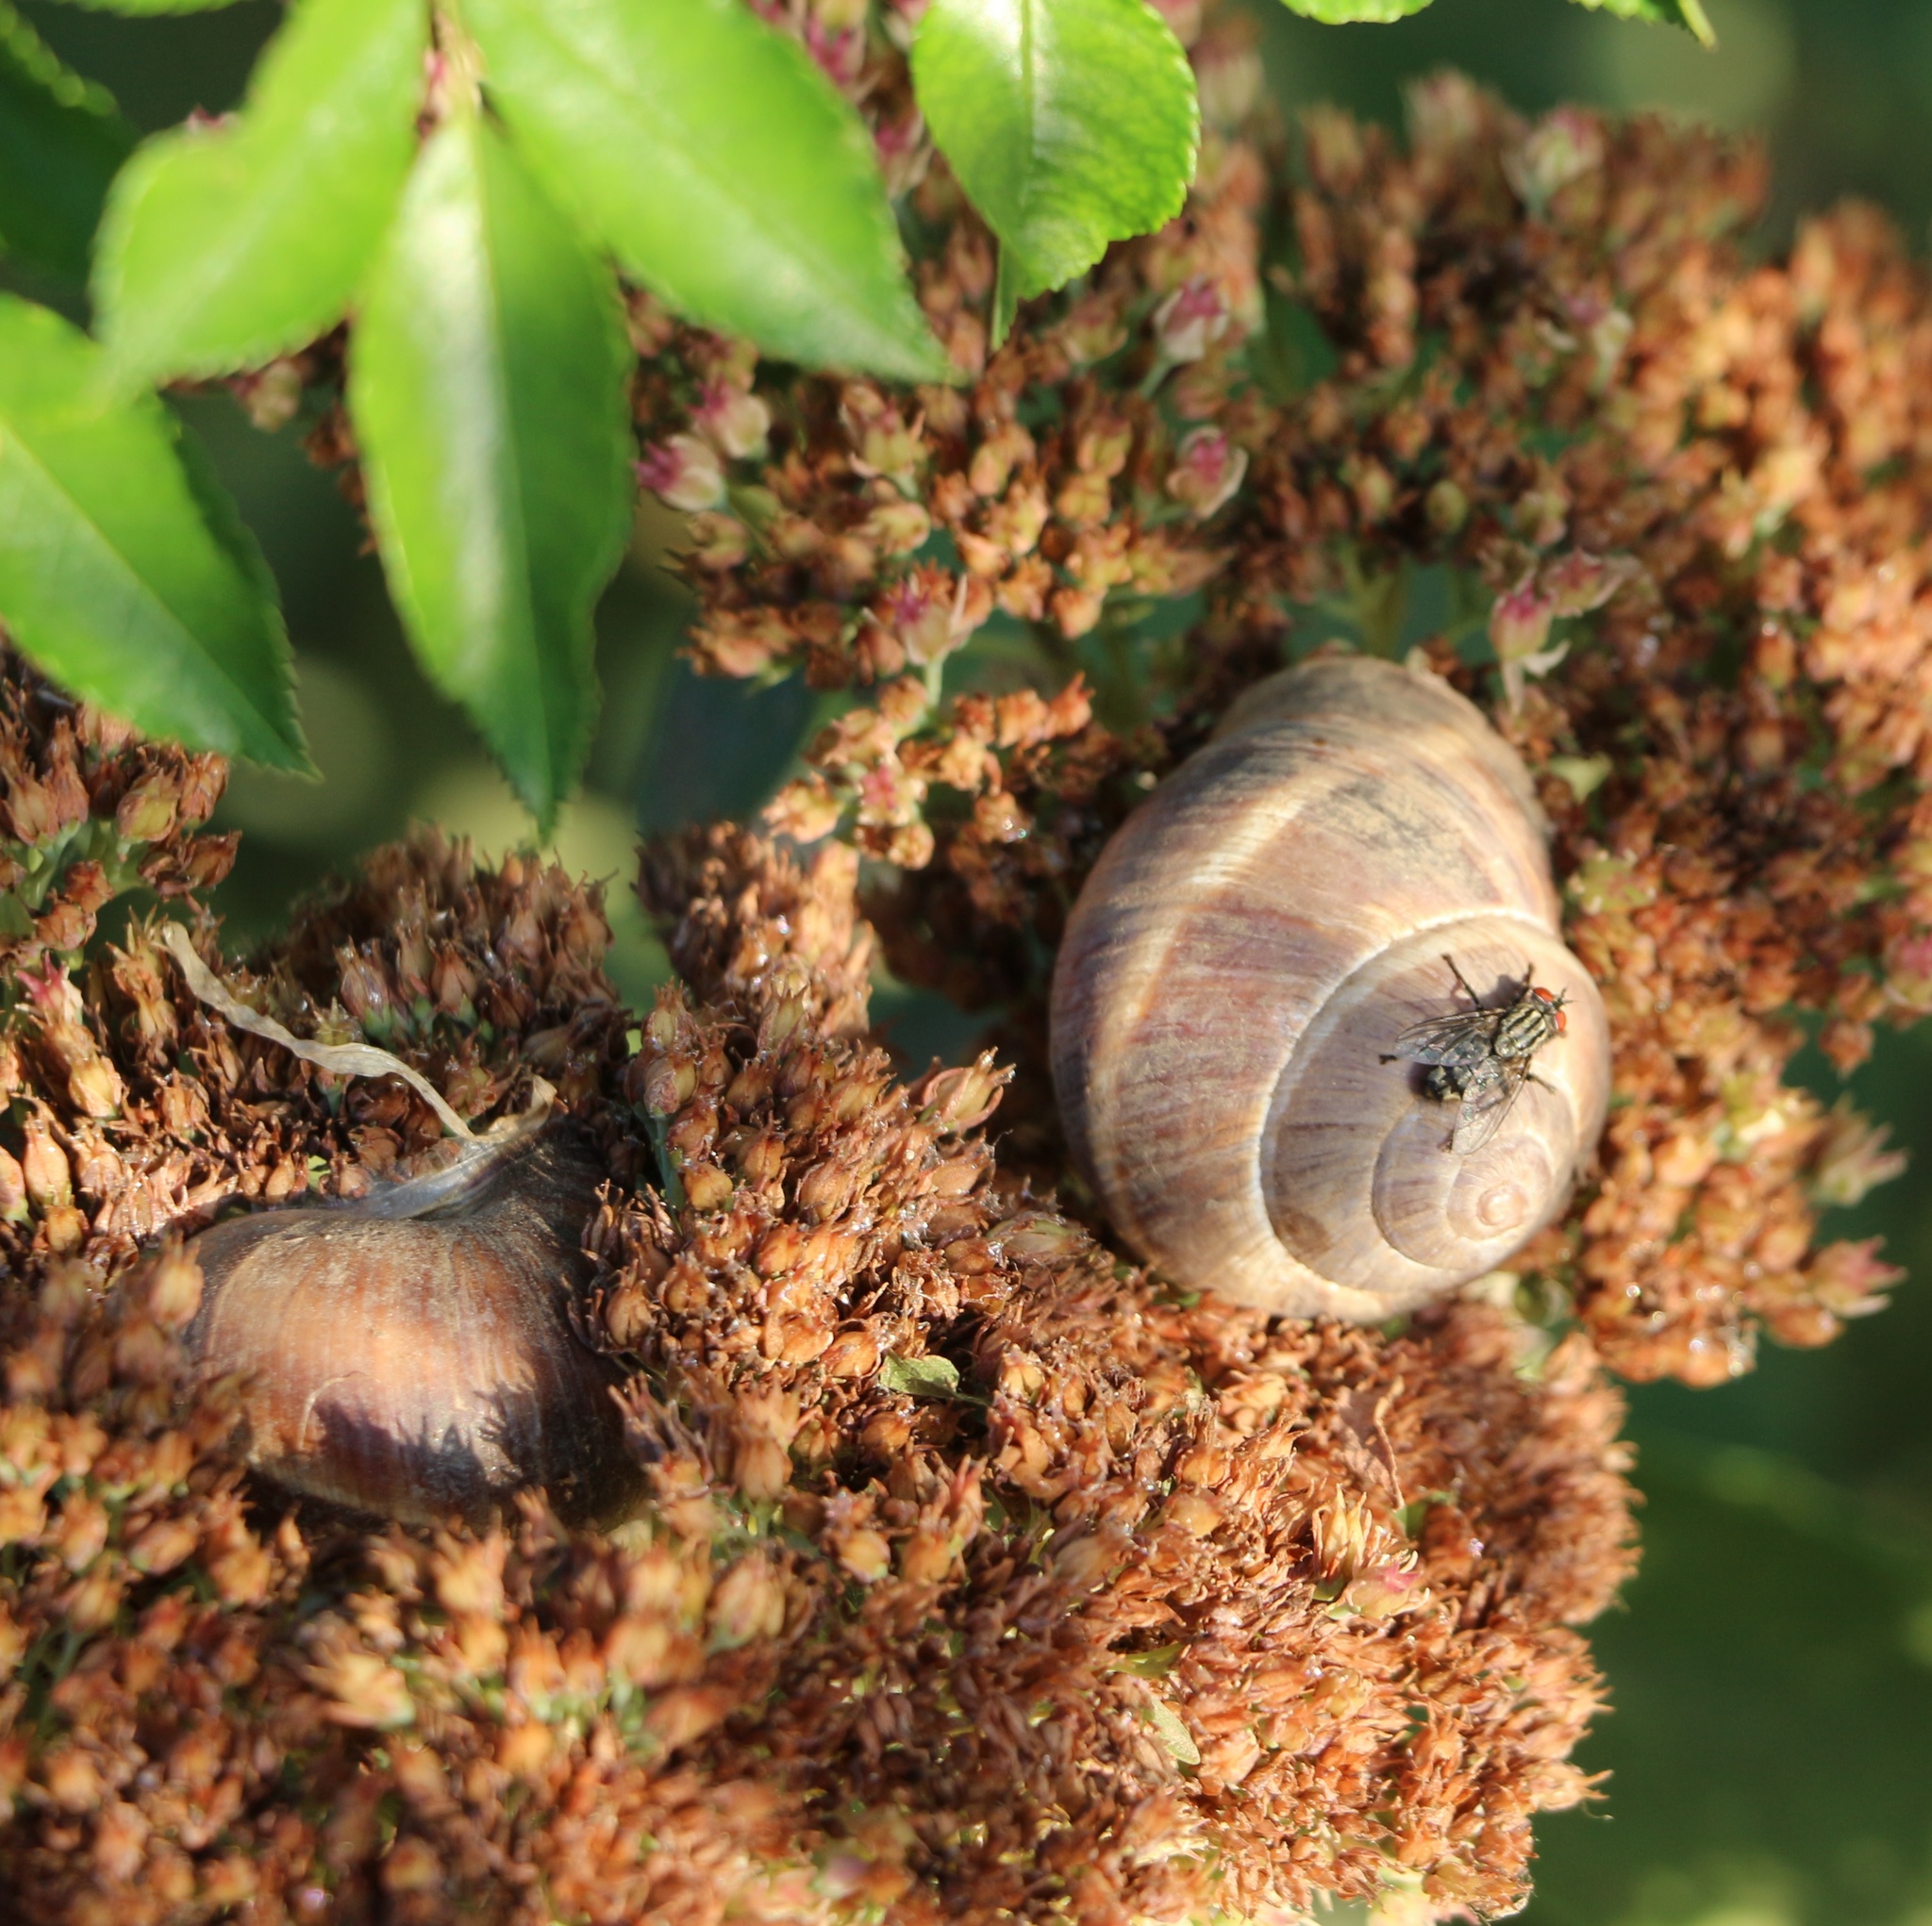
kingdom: Animalia
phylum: Mollusca
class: Gastropoda
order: Stylommatophora
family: Helicidae
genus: Helix
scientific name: Helix lucorum
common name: Turkish snail
